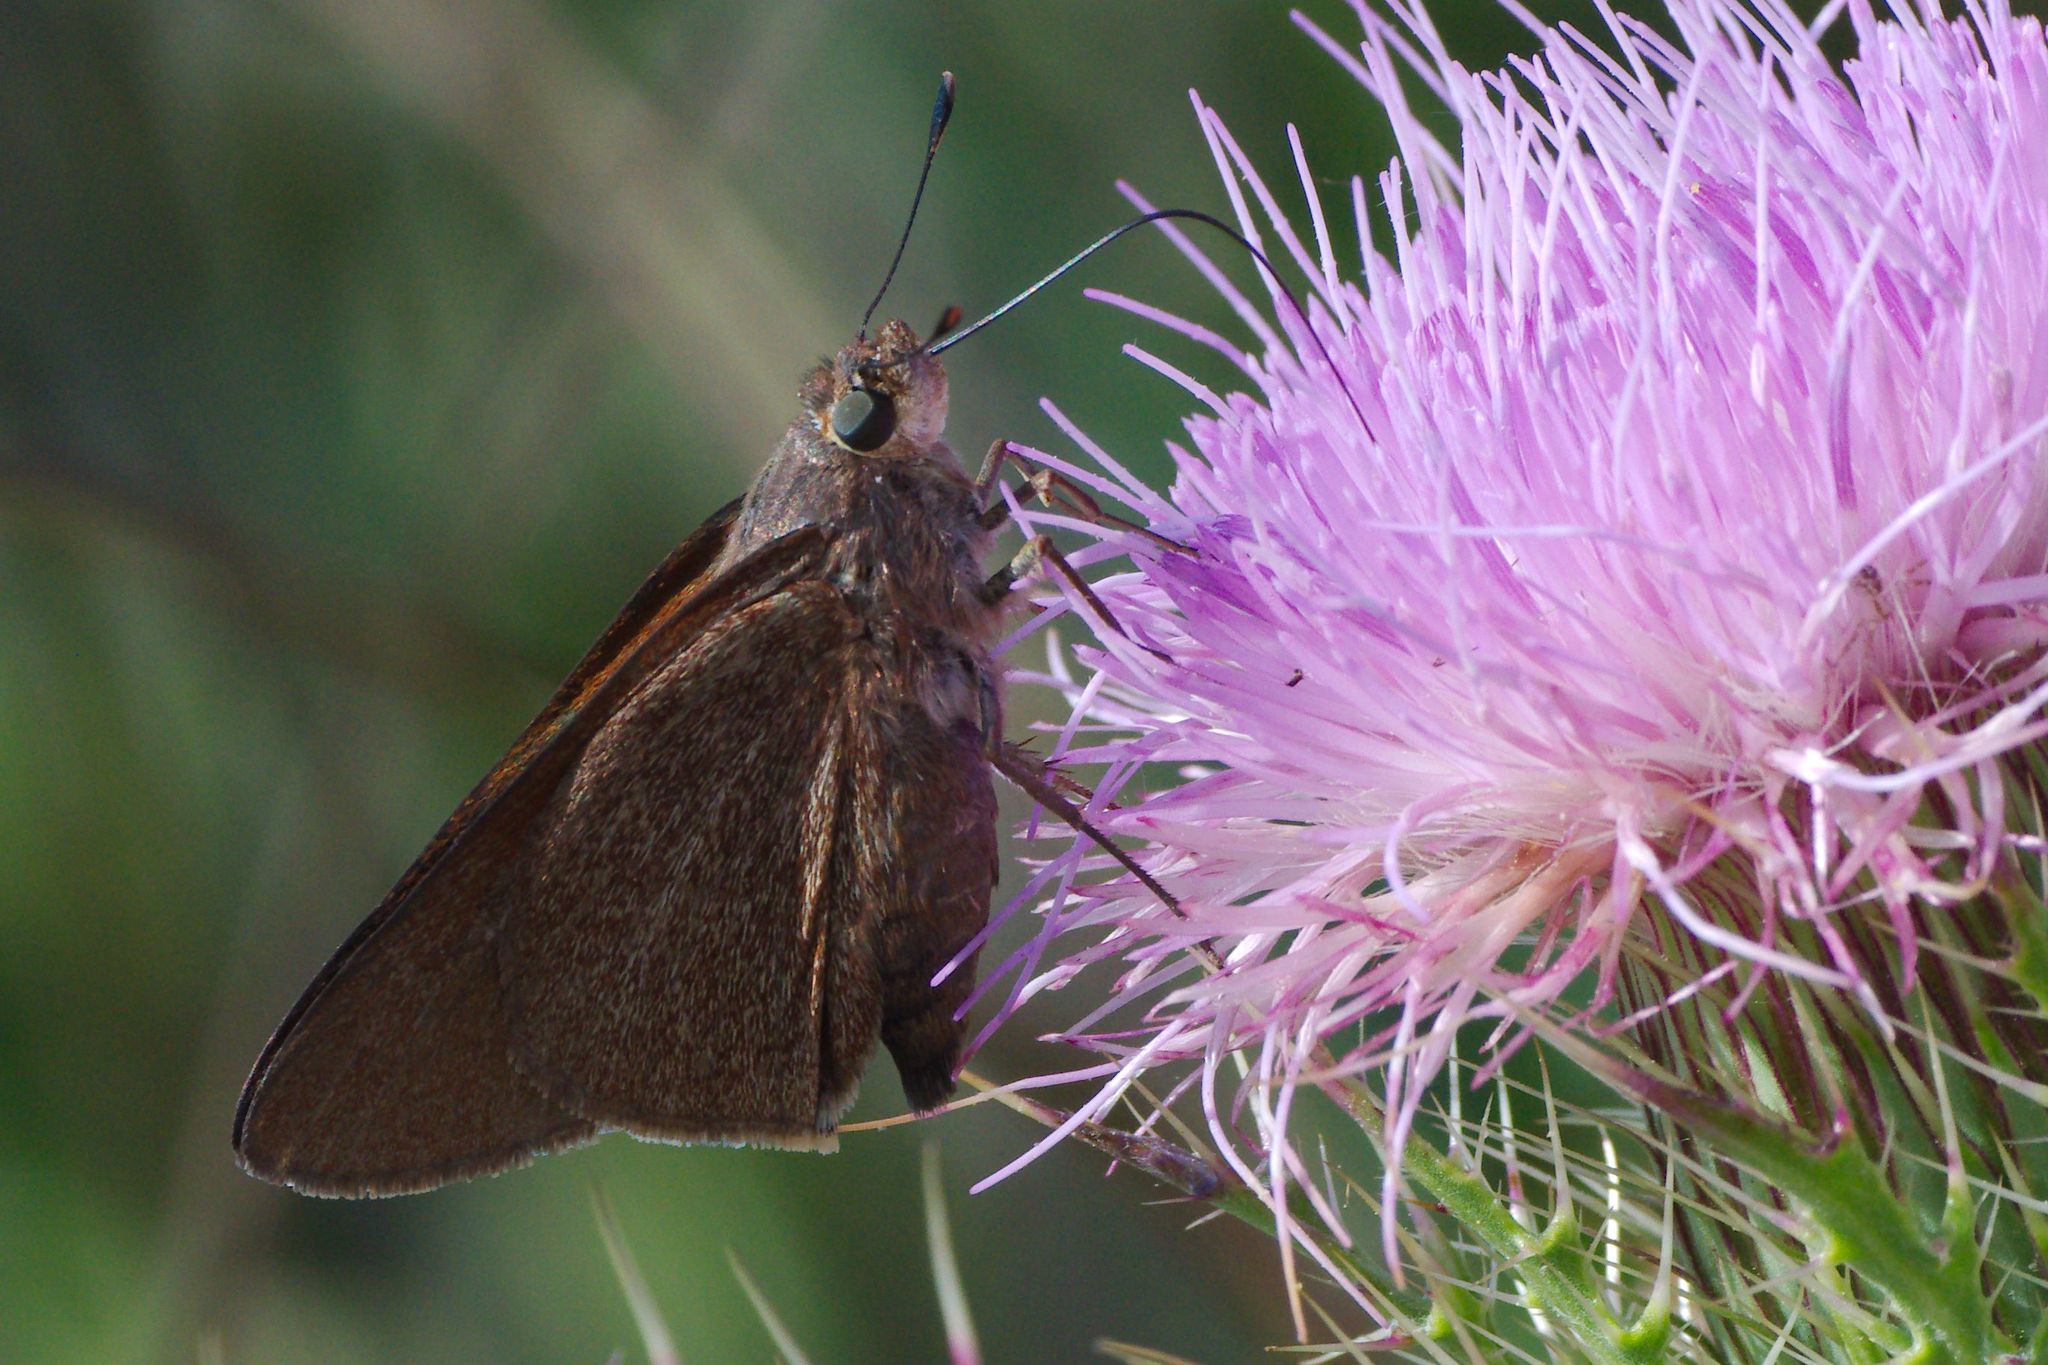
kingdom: Animalia
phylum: Arthropoda
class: Insecta
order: Lepidoptera
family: Hesperiidae
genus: Asbolis
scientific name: Asbolis capucinus
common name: Monk skipper
